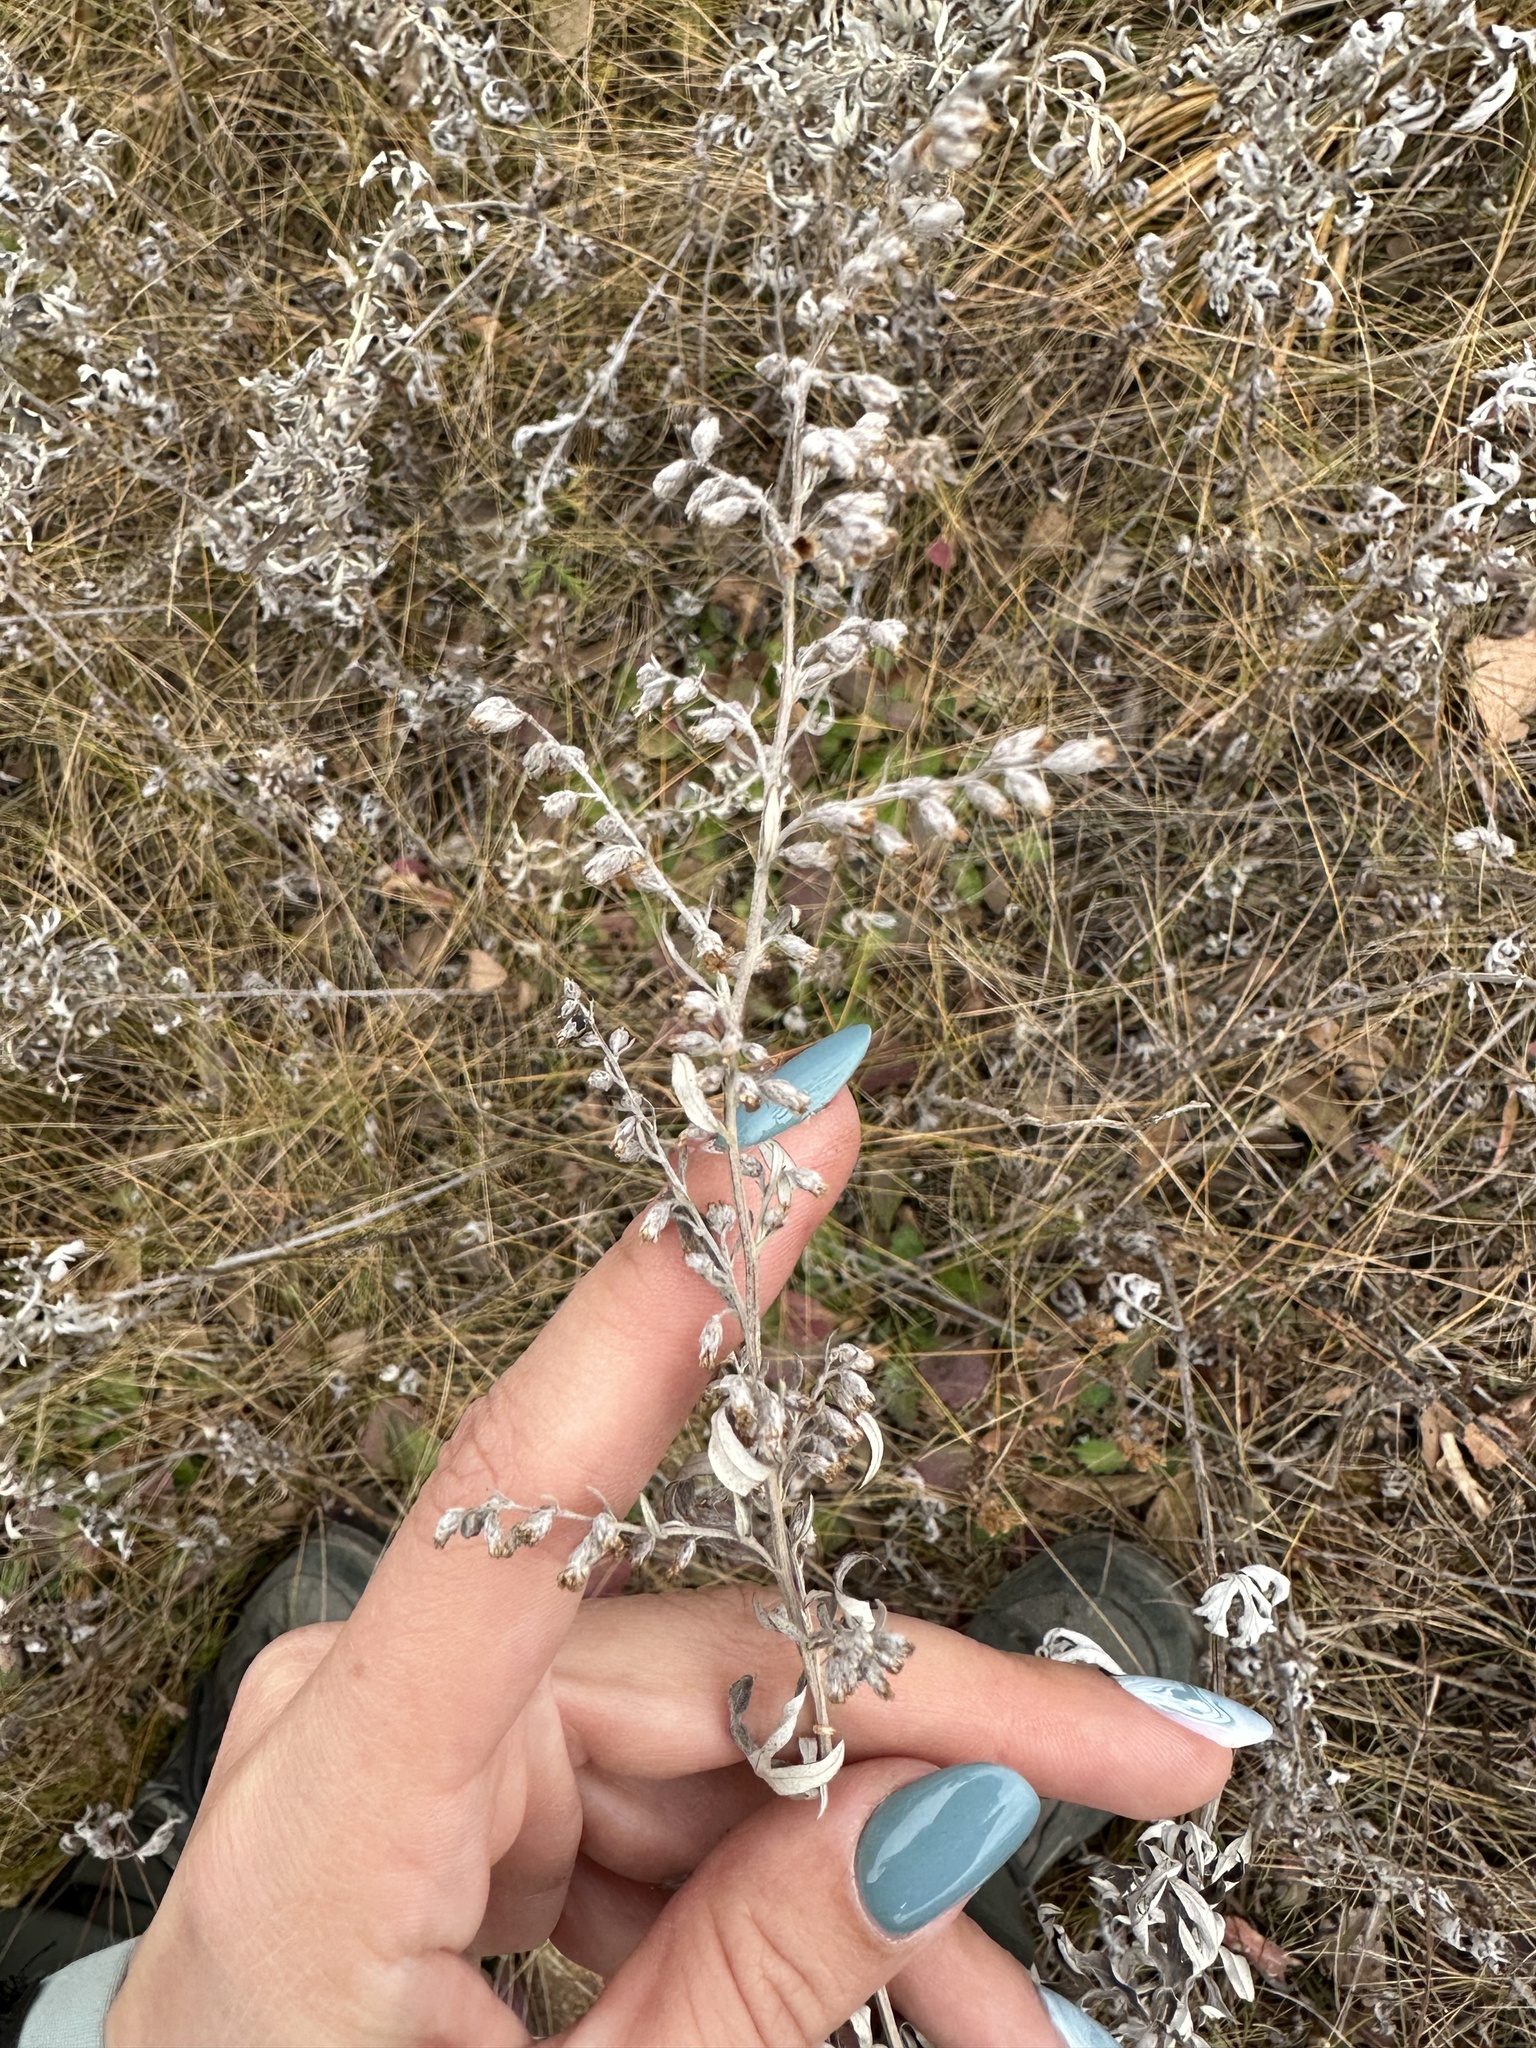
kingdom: Plantae
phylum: Tracheophyta
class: Magnoliopsida
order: Asterales
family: Asteraceae
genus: Artemisia
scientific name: Artemisia argyi
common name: Chinese mugwort
